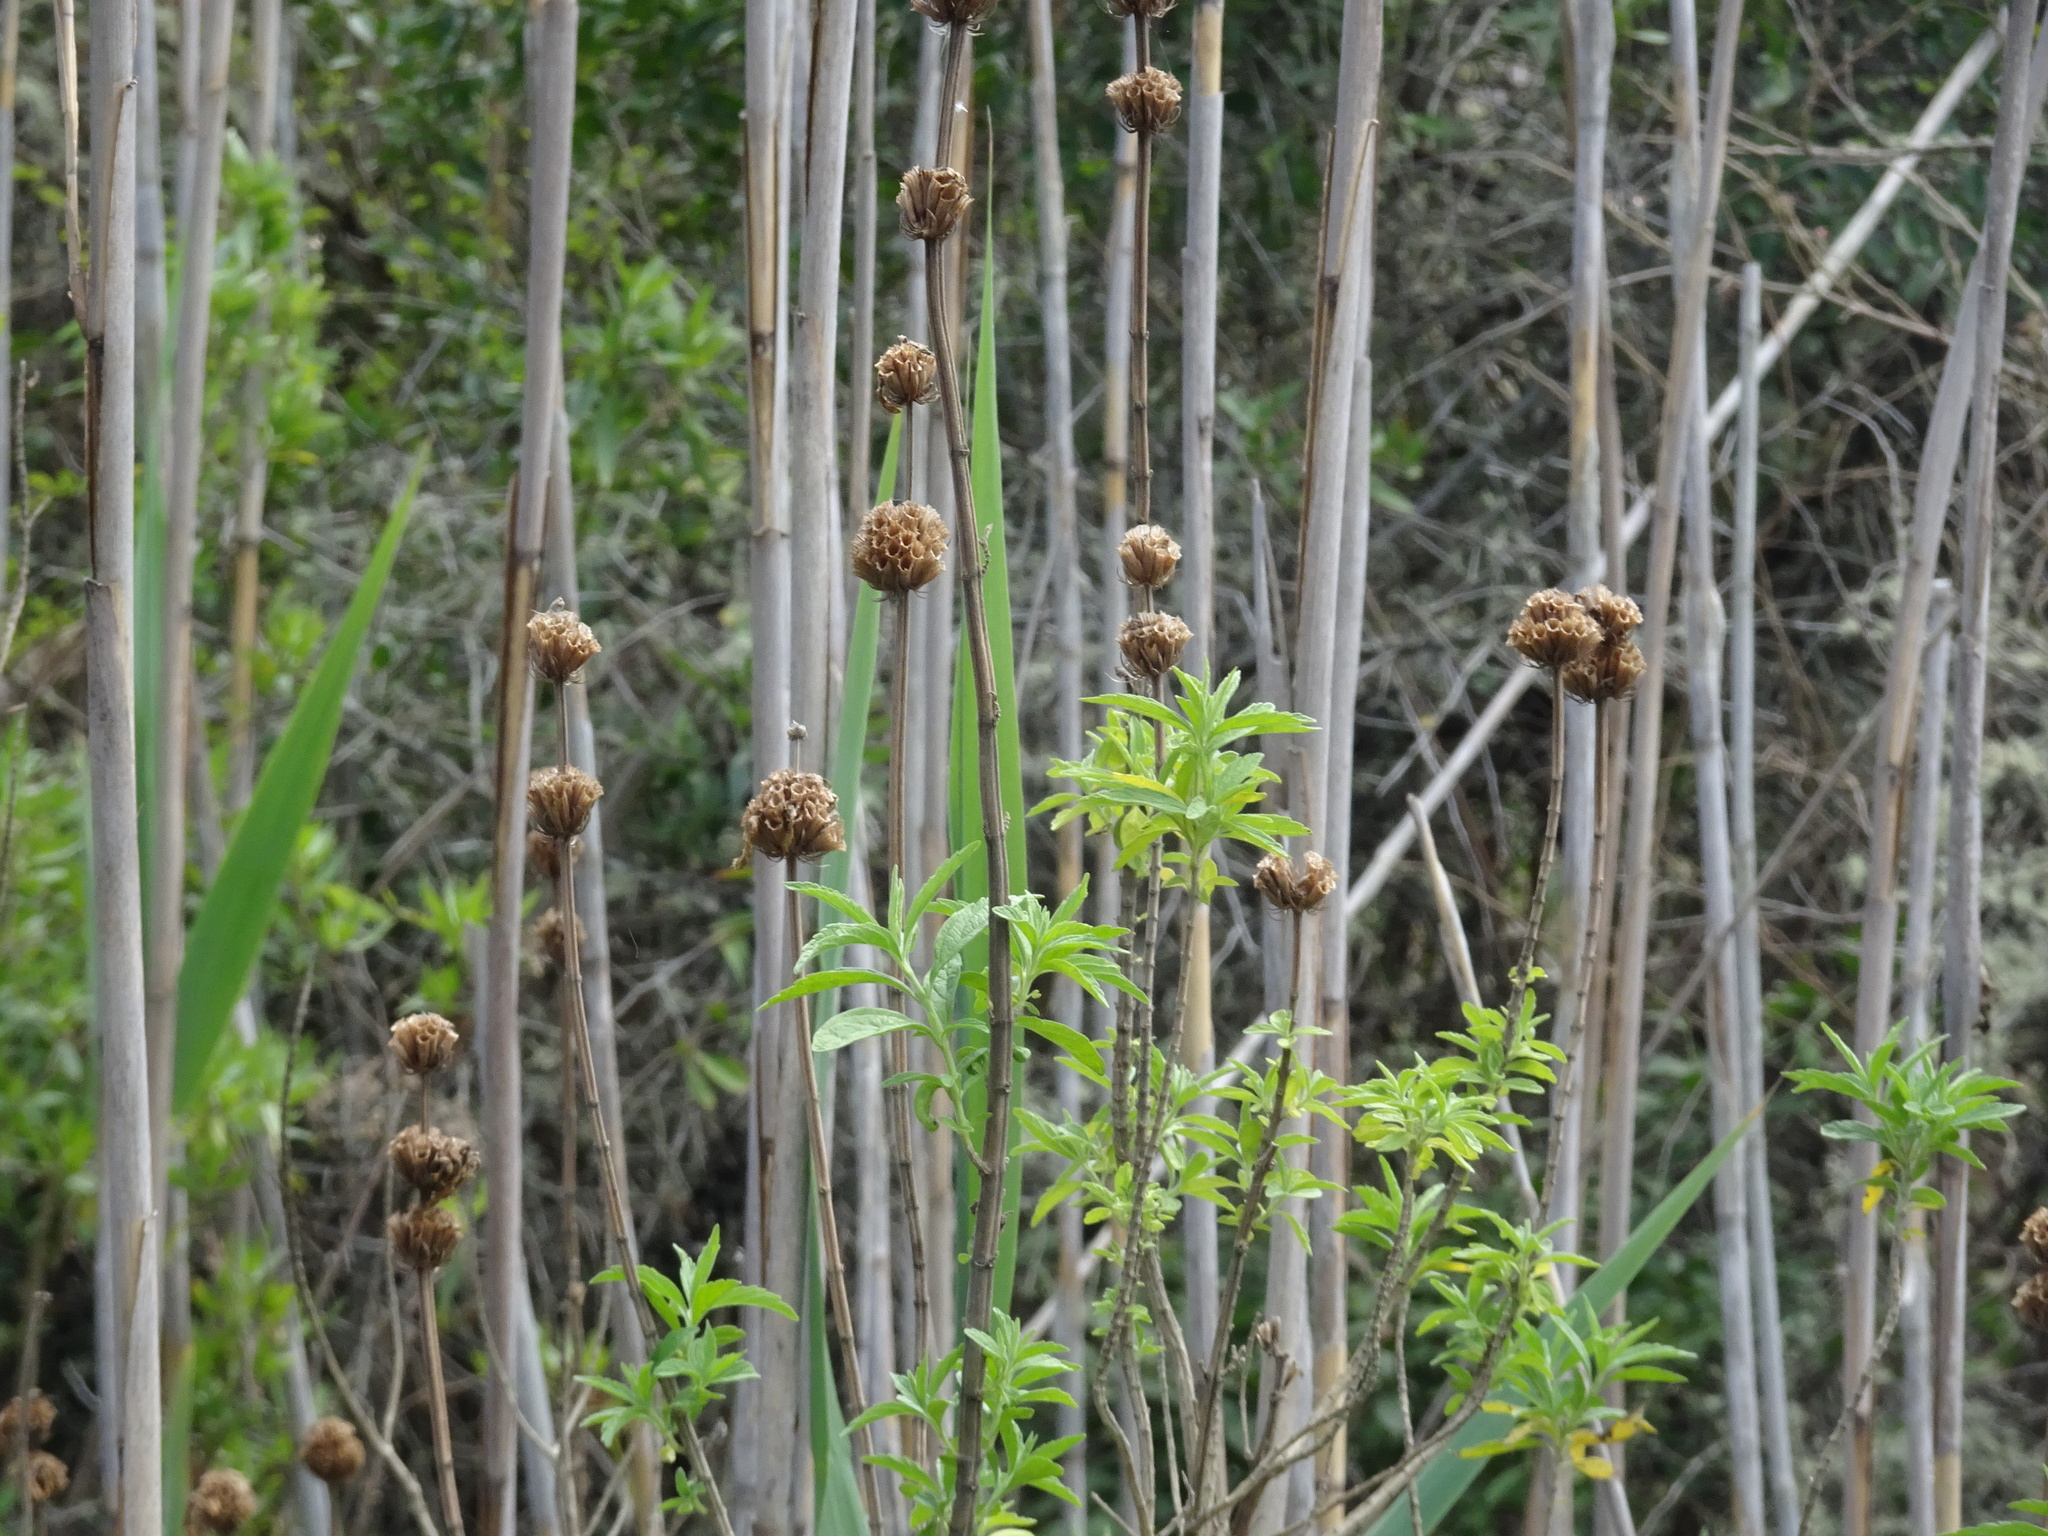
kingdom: Plantae
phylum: Tracheophyta
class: Magnoliopsida
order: Lamiales
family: Lamiaceae
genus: Leonotis
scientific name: Leonotis leonurus
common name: Lion's ear
